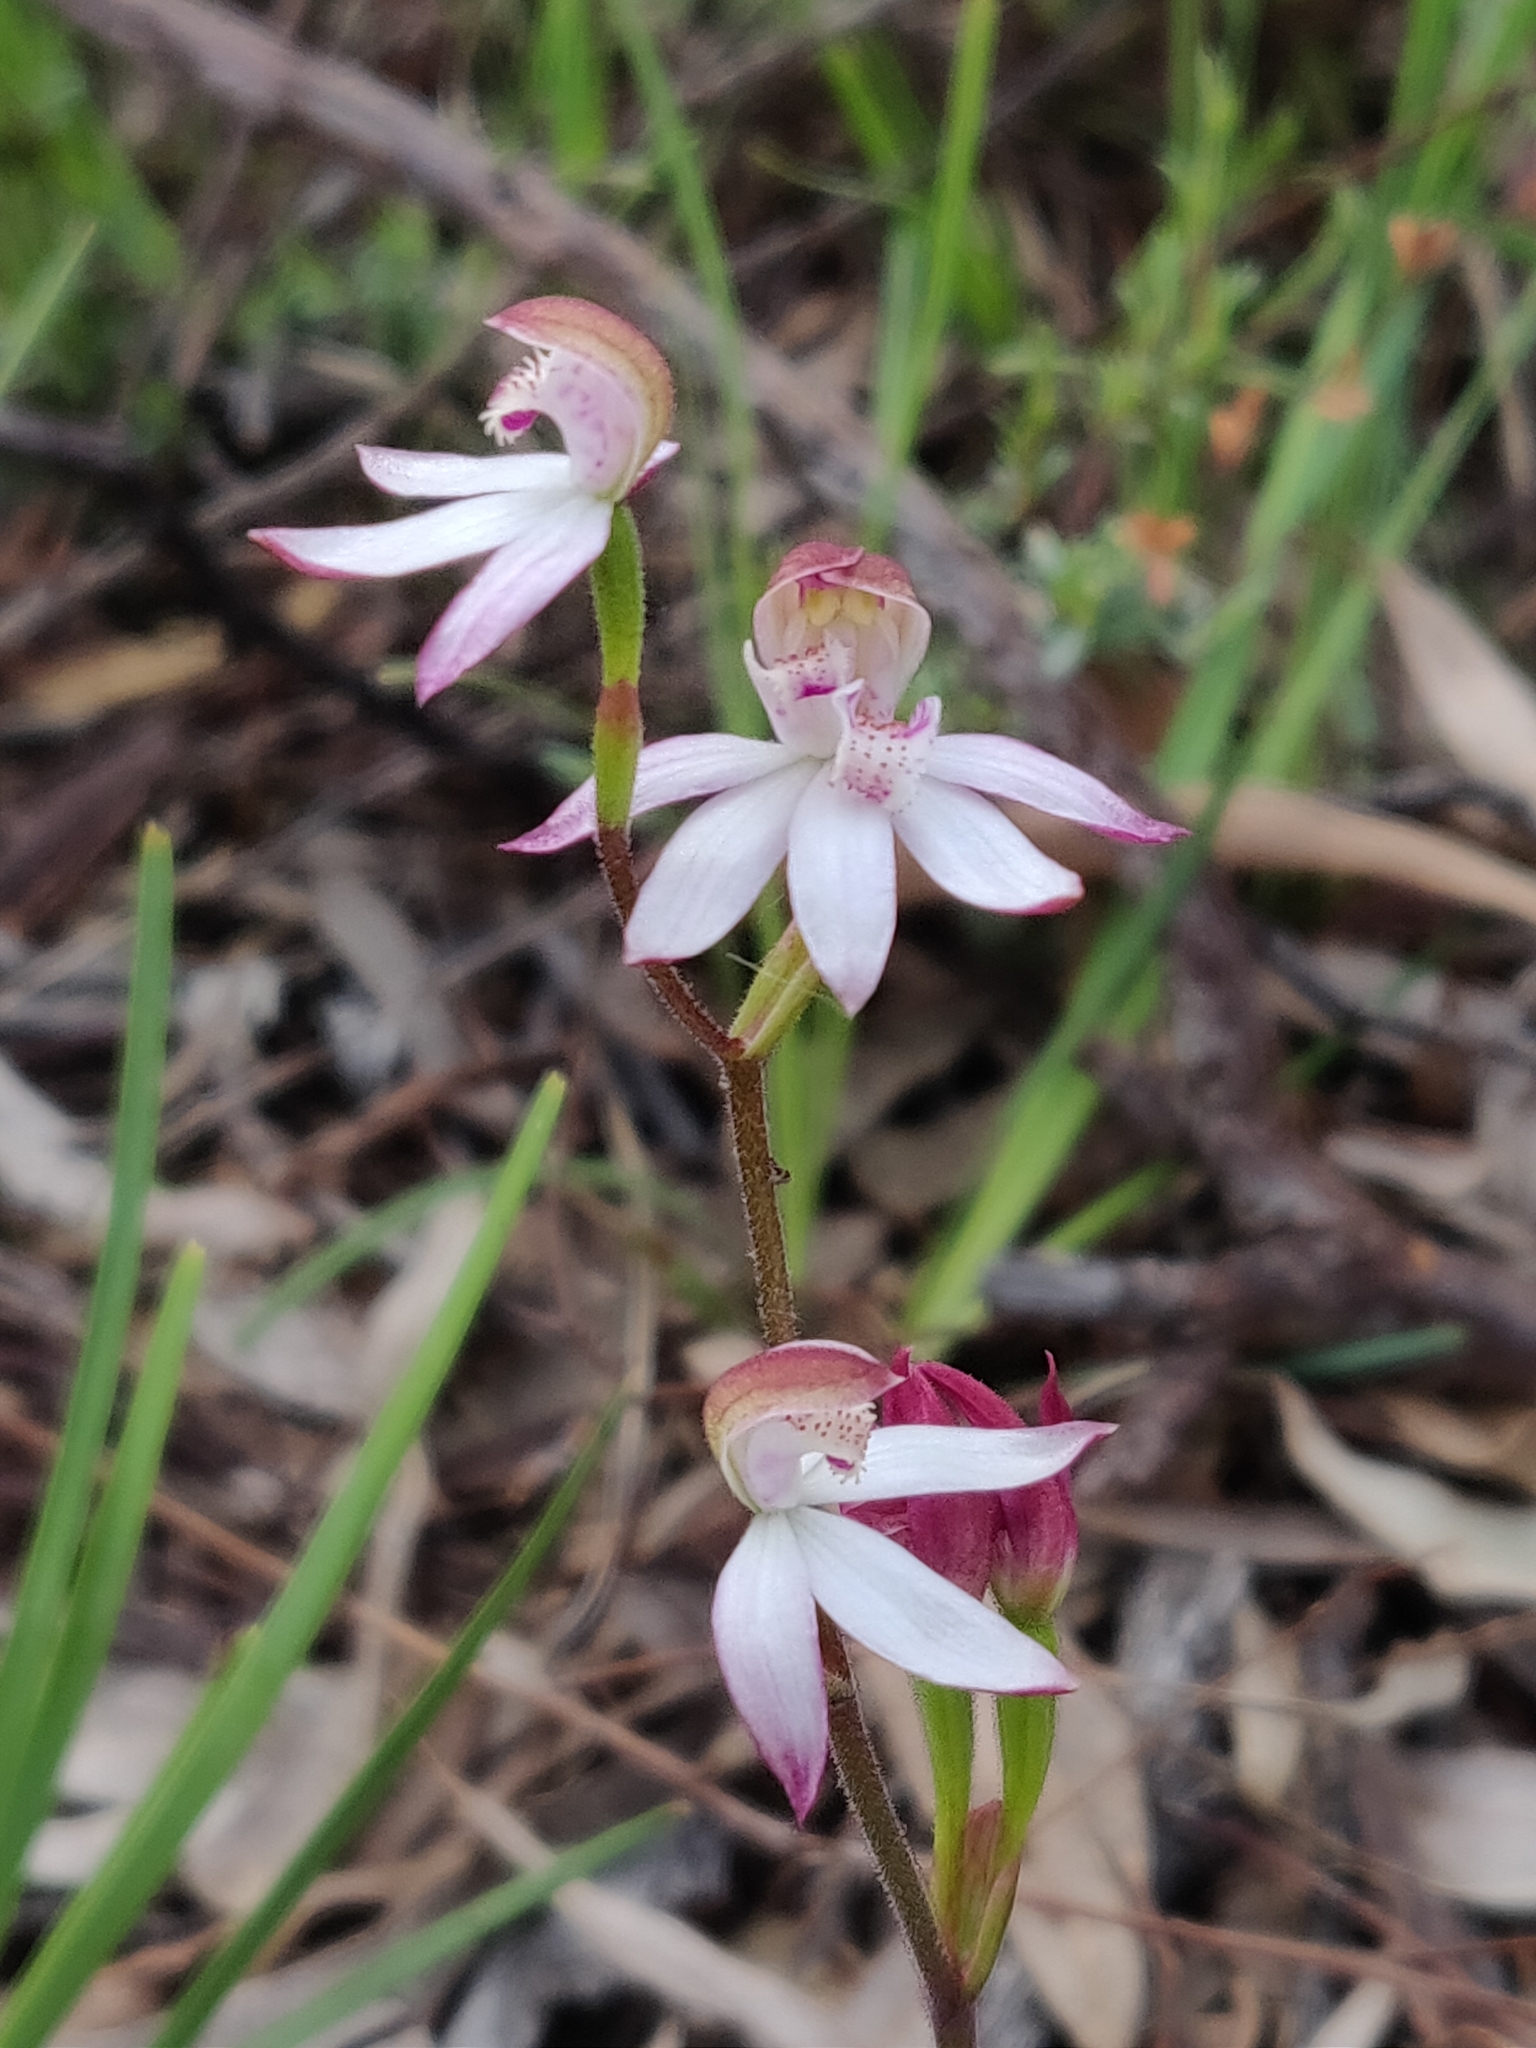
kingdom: Plantae
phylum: Tracheophyta
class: Liliopsida
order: Asparagales
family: Orchidaceae
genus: Caladenia
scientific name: Caladenia moschata
